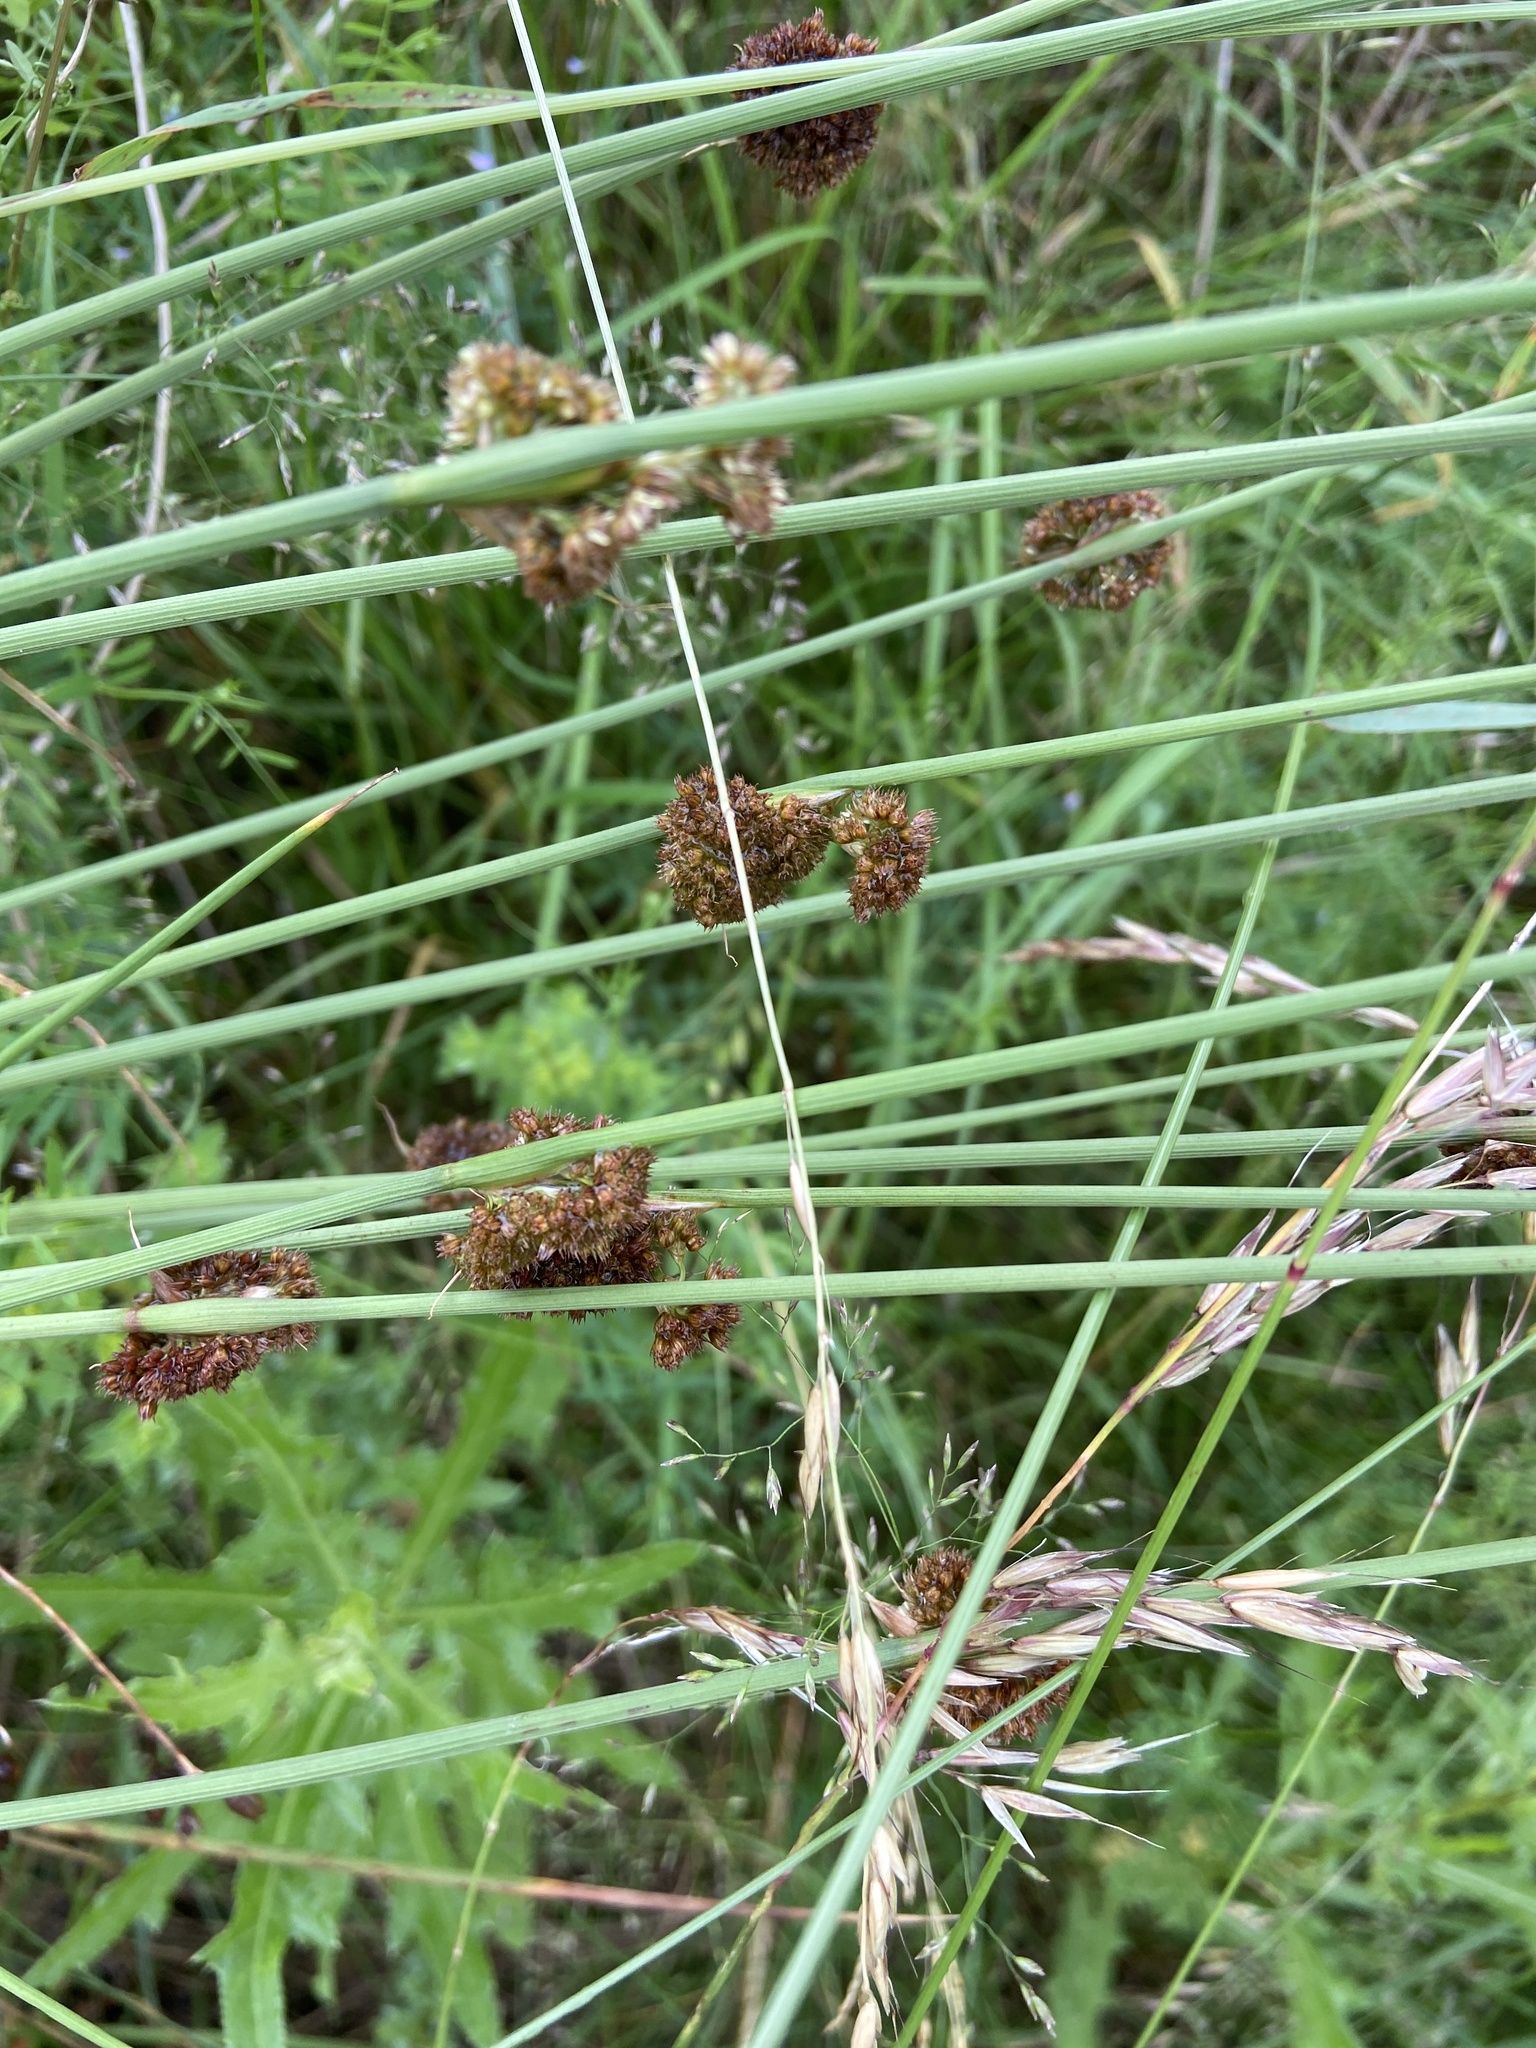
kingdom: Plantae
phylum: Tracheophyta
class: Liliopsida
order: Poales
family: Juncaceae
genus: Juncus
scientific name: Juncus conglomeratus
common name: Compact rush
